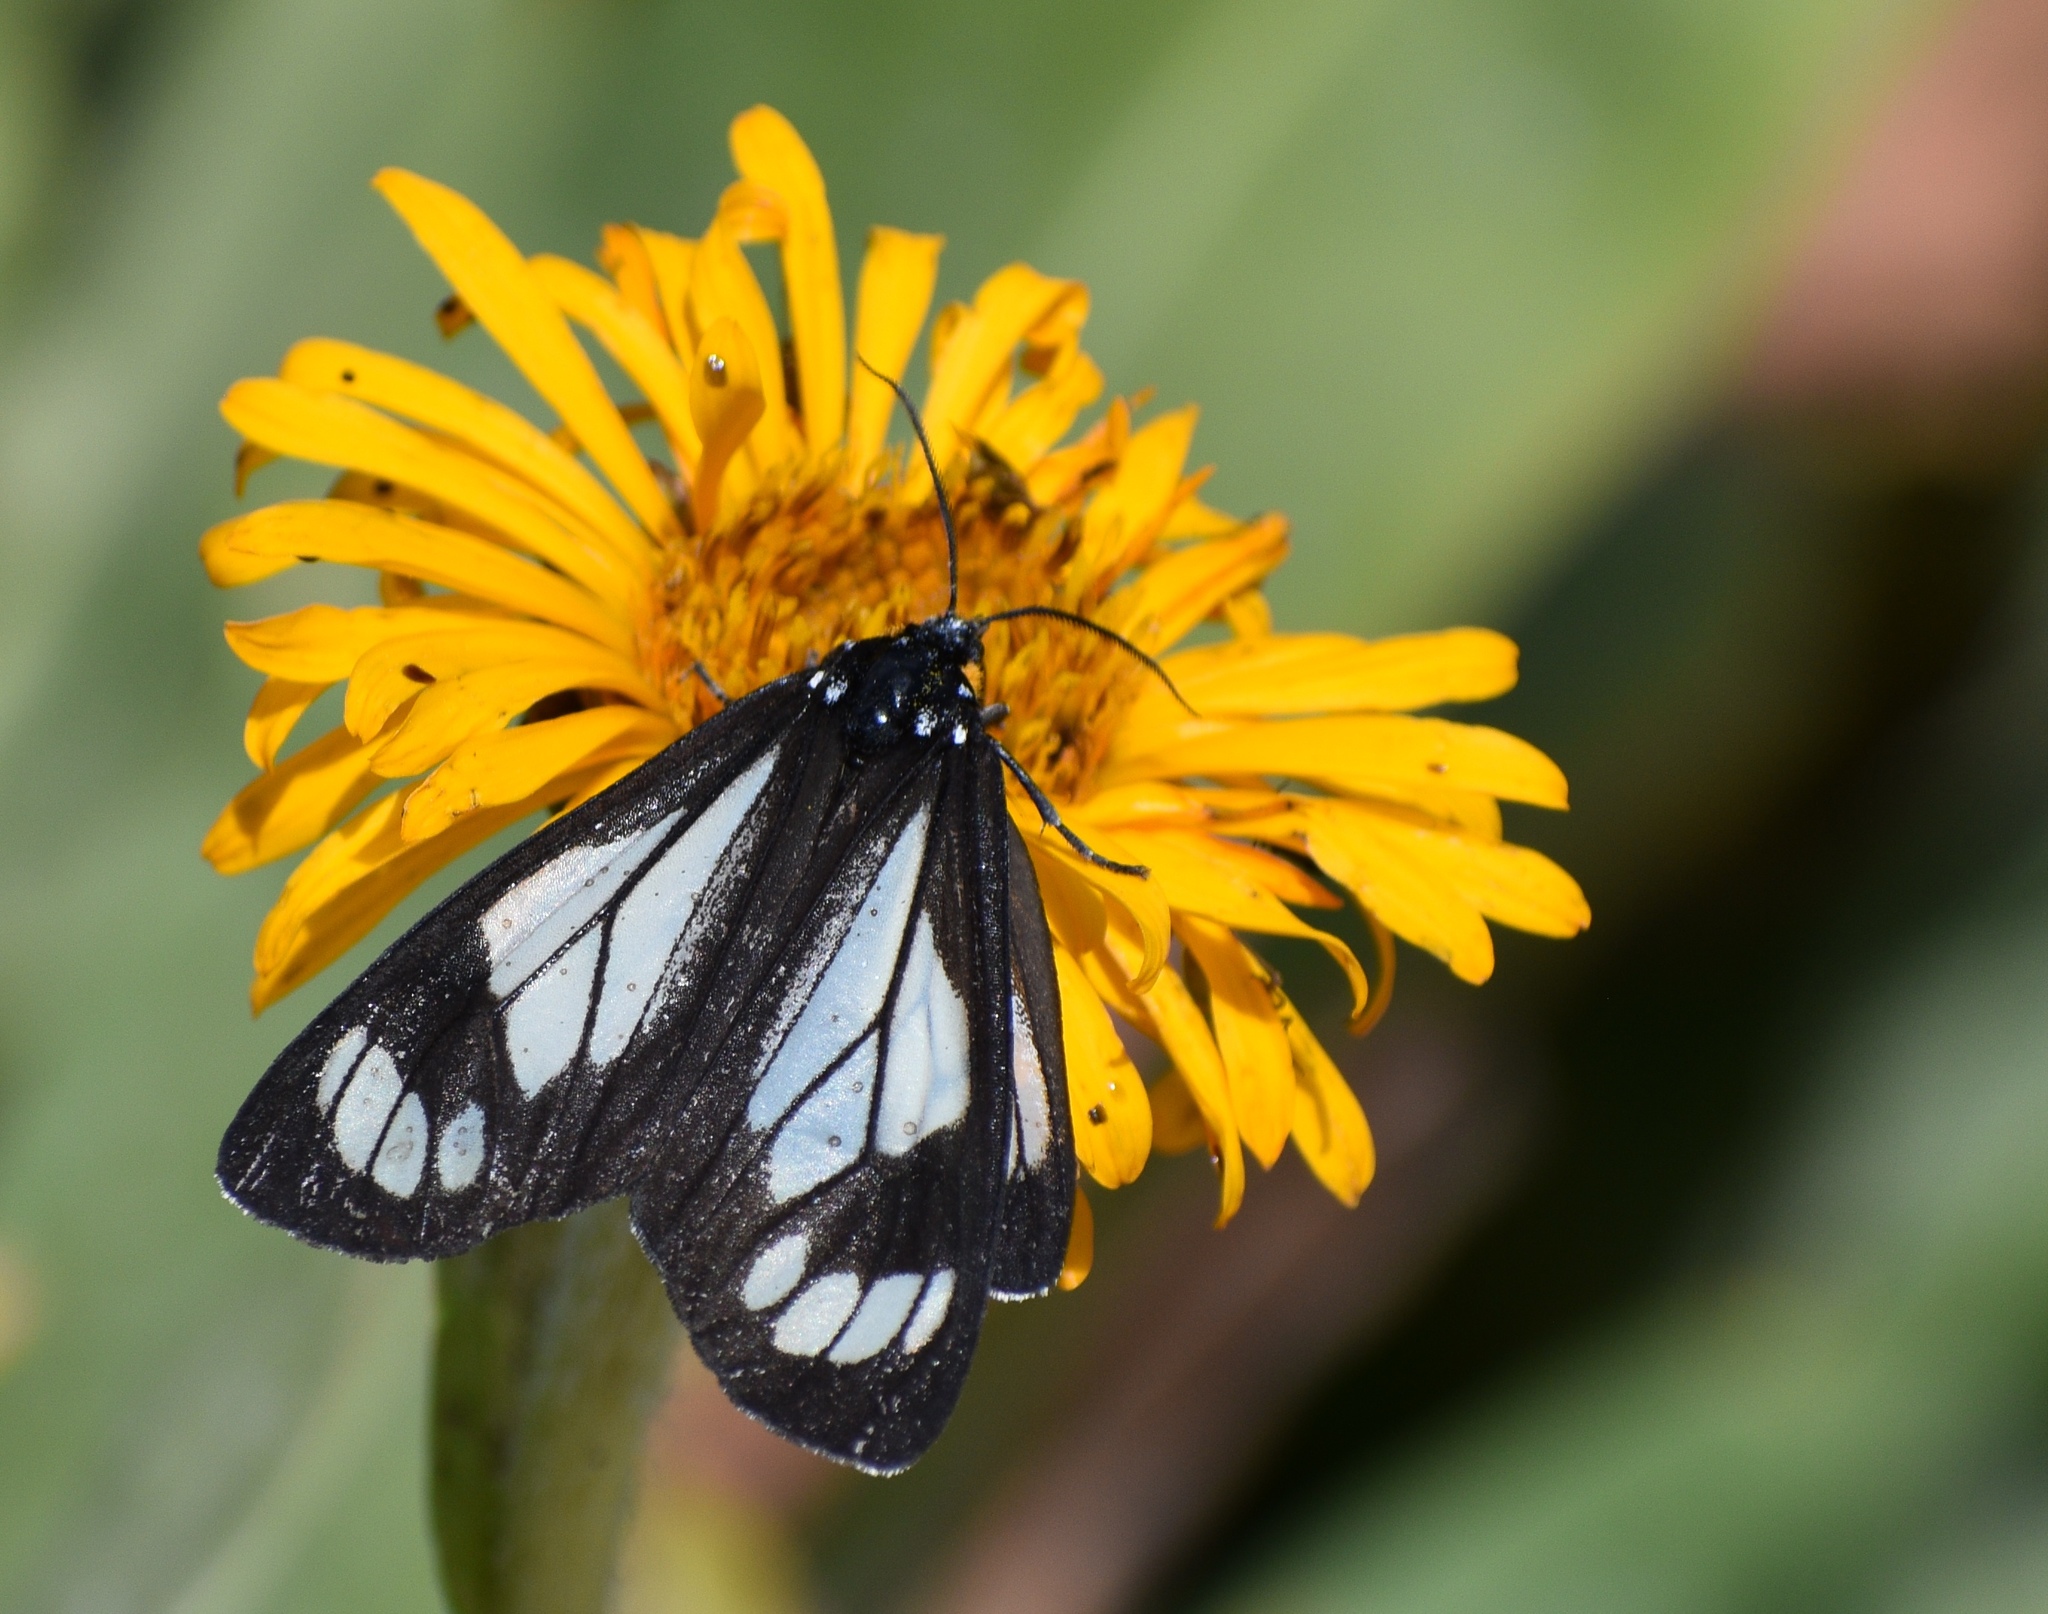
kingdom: Animalia
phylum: Arthropoda
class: Insecta
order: Lepidoptera
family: Erebidae
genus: Gnophaela
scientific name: Gnophaela vermiculata
